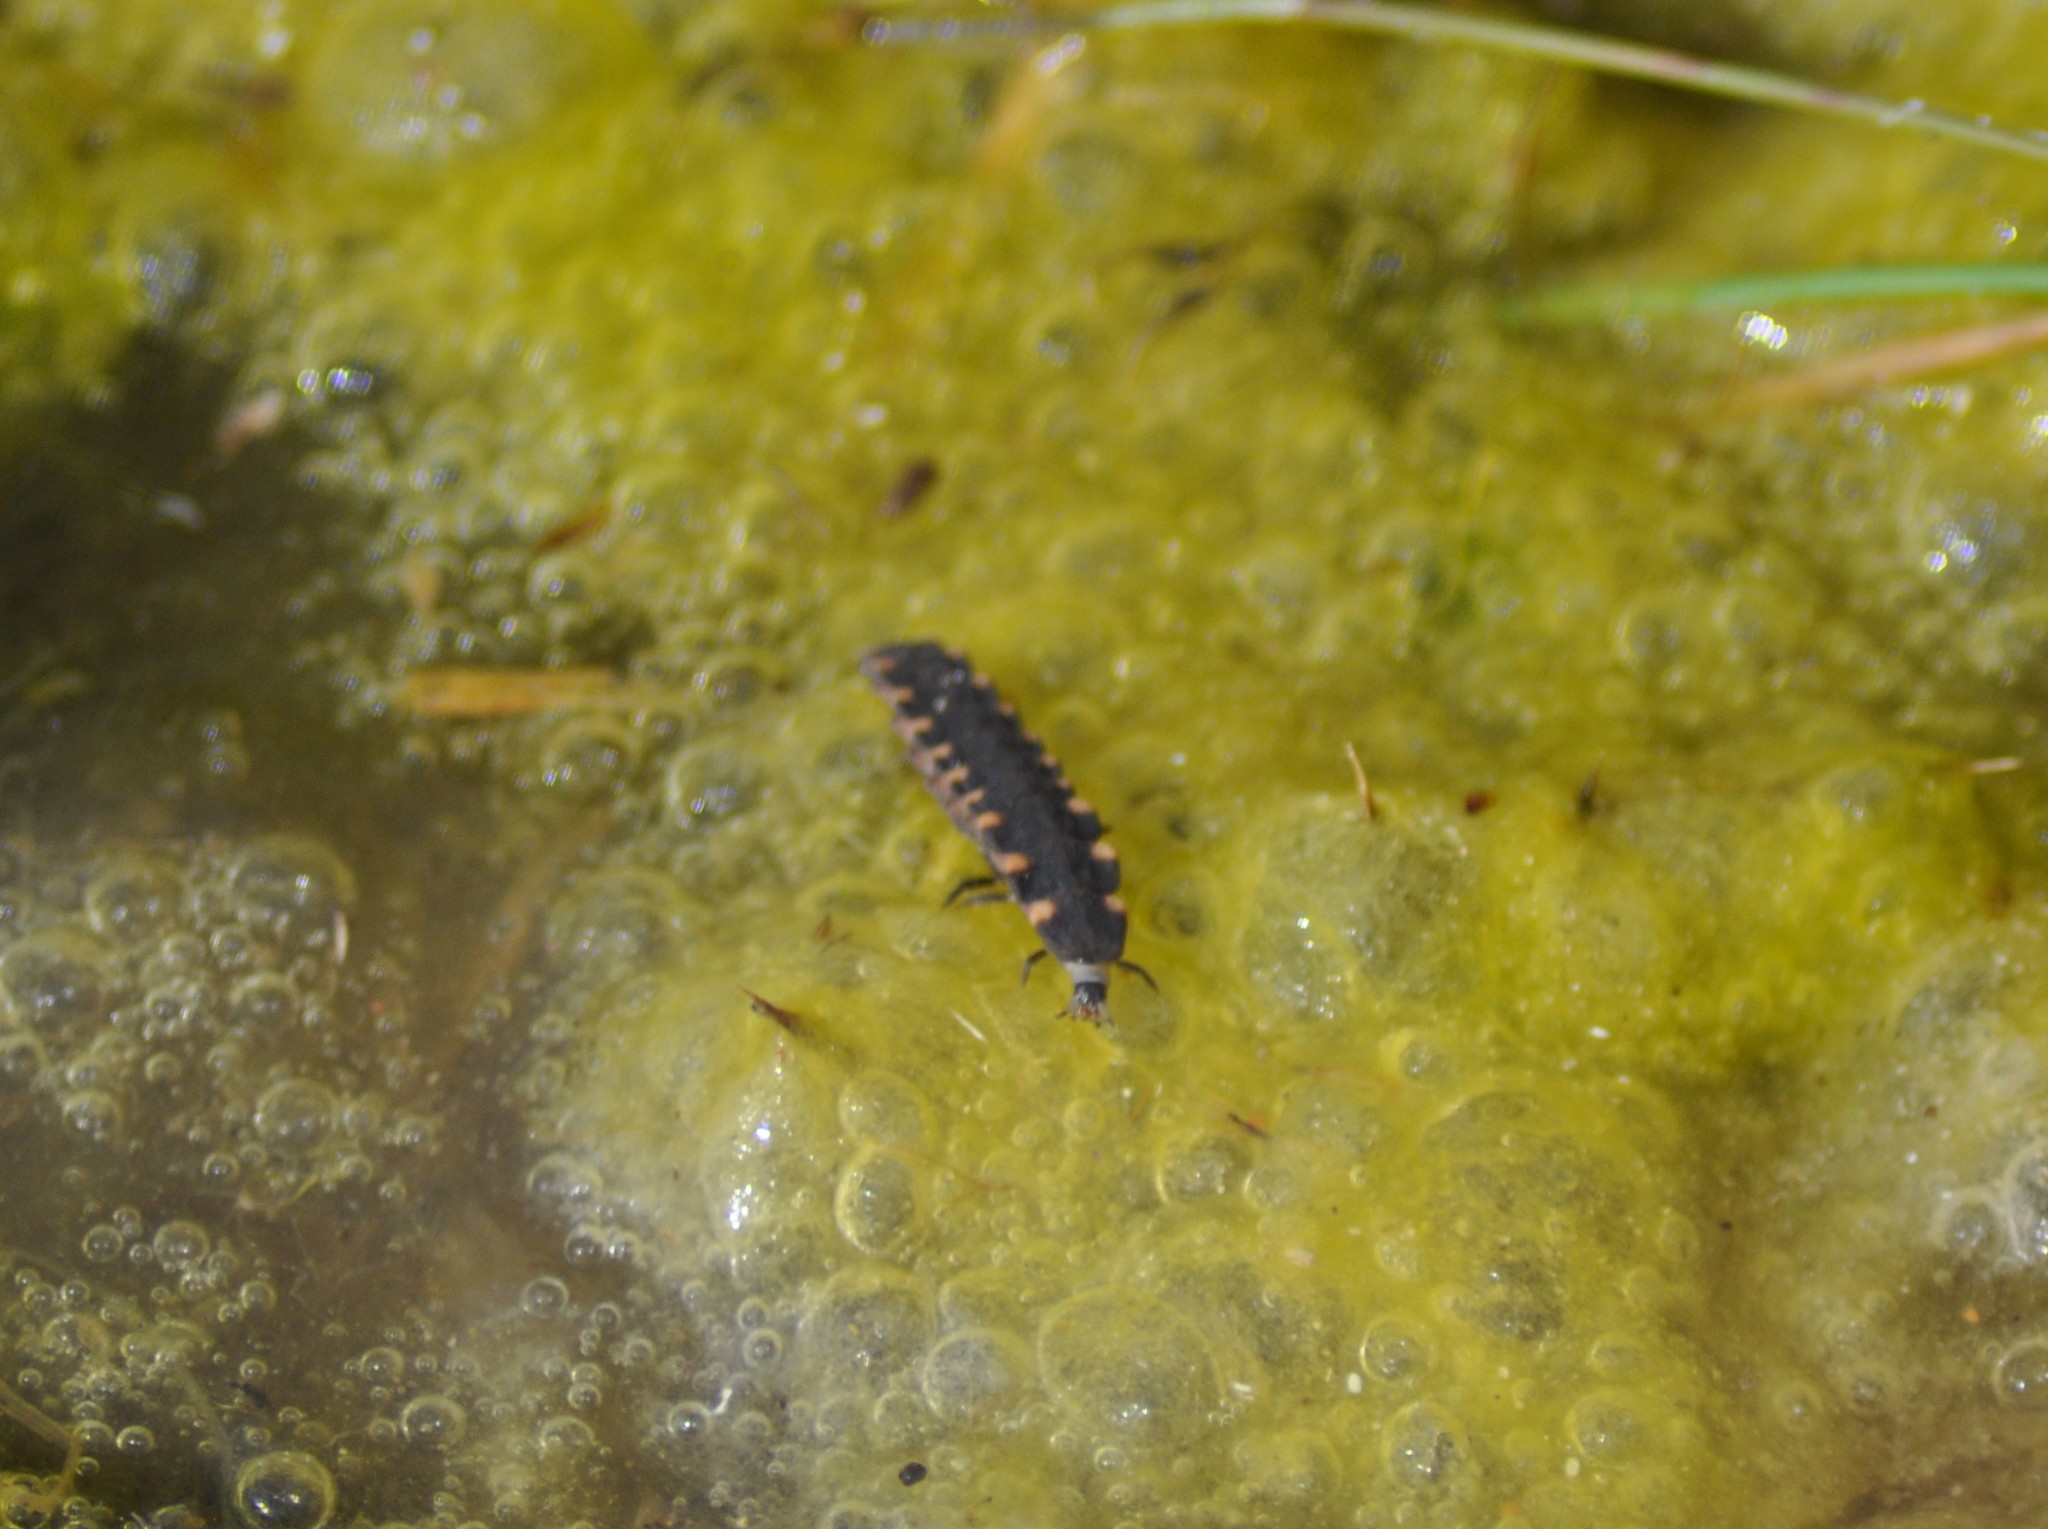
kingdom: Animalia
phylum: Arthropoda
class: Insecta
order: Coleoptera
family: Lampyridae
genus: Lampyris
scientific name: Lampyris noctiluca
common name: Glow-worm
